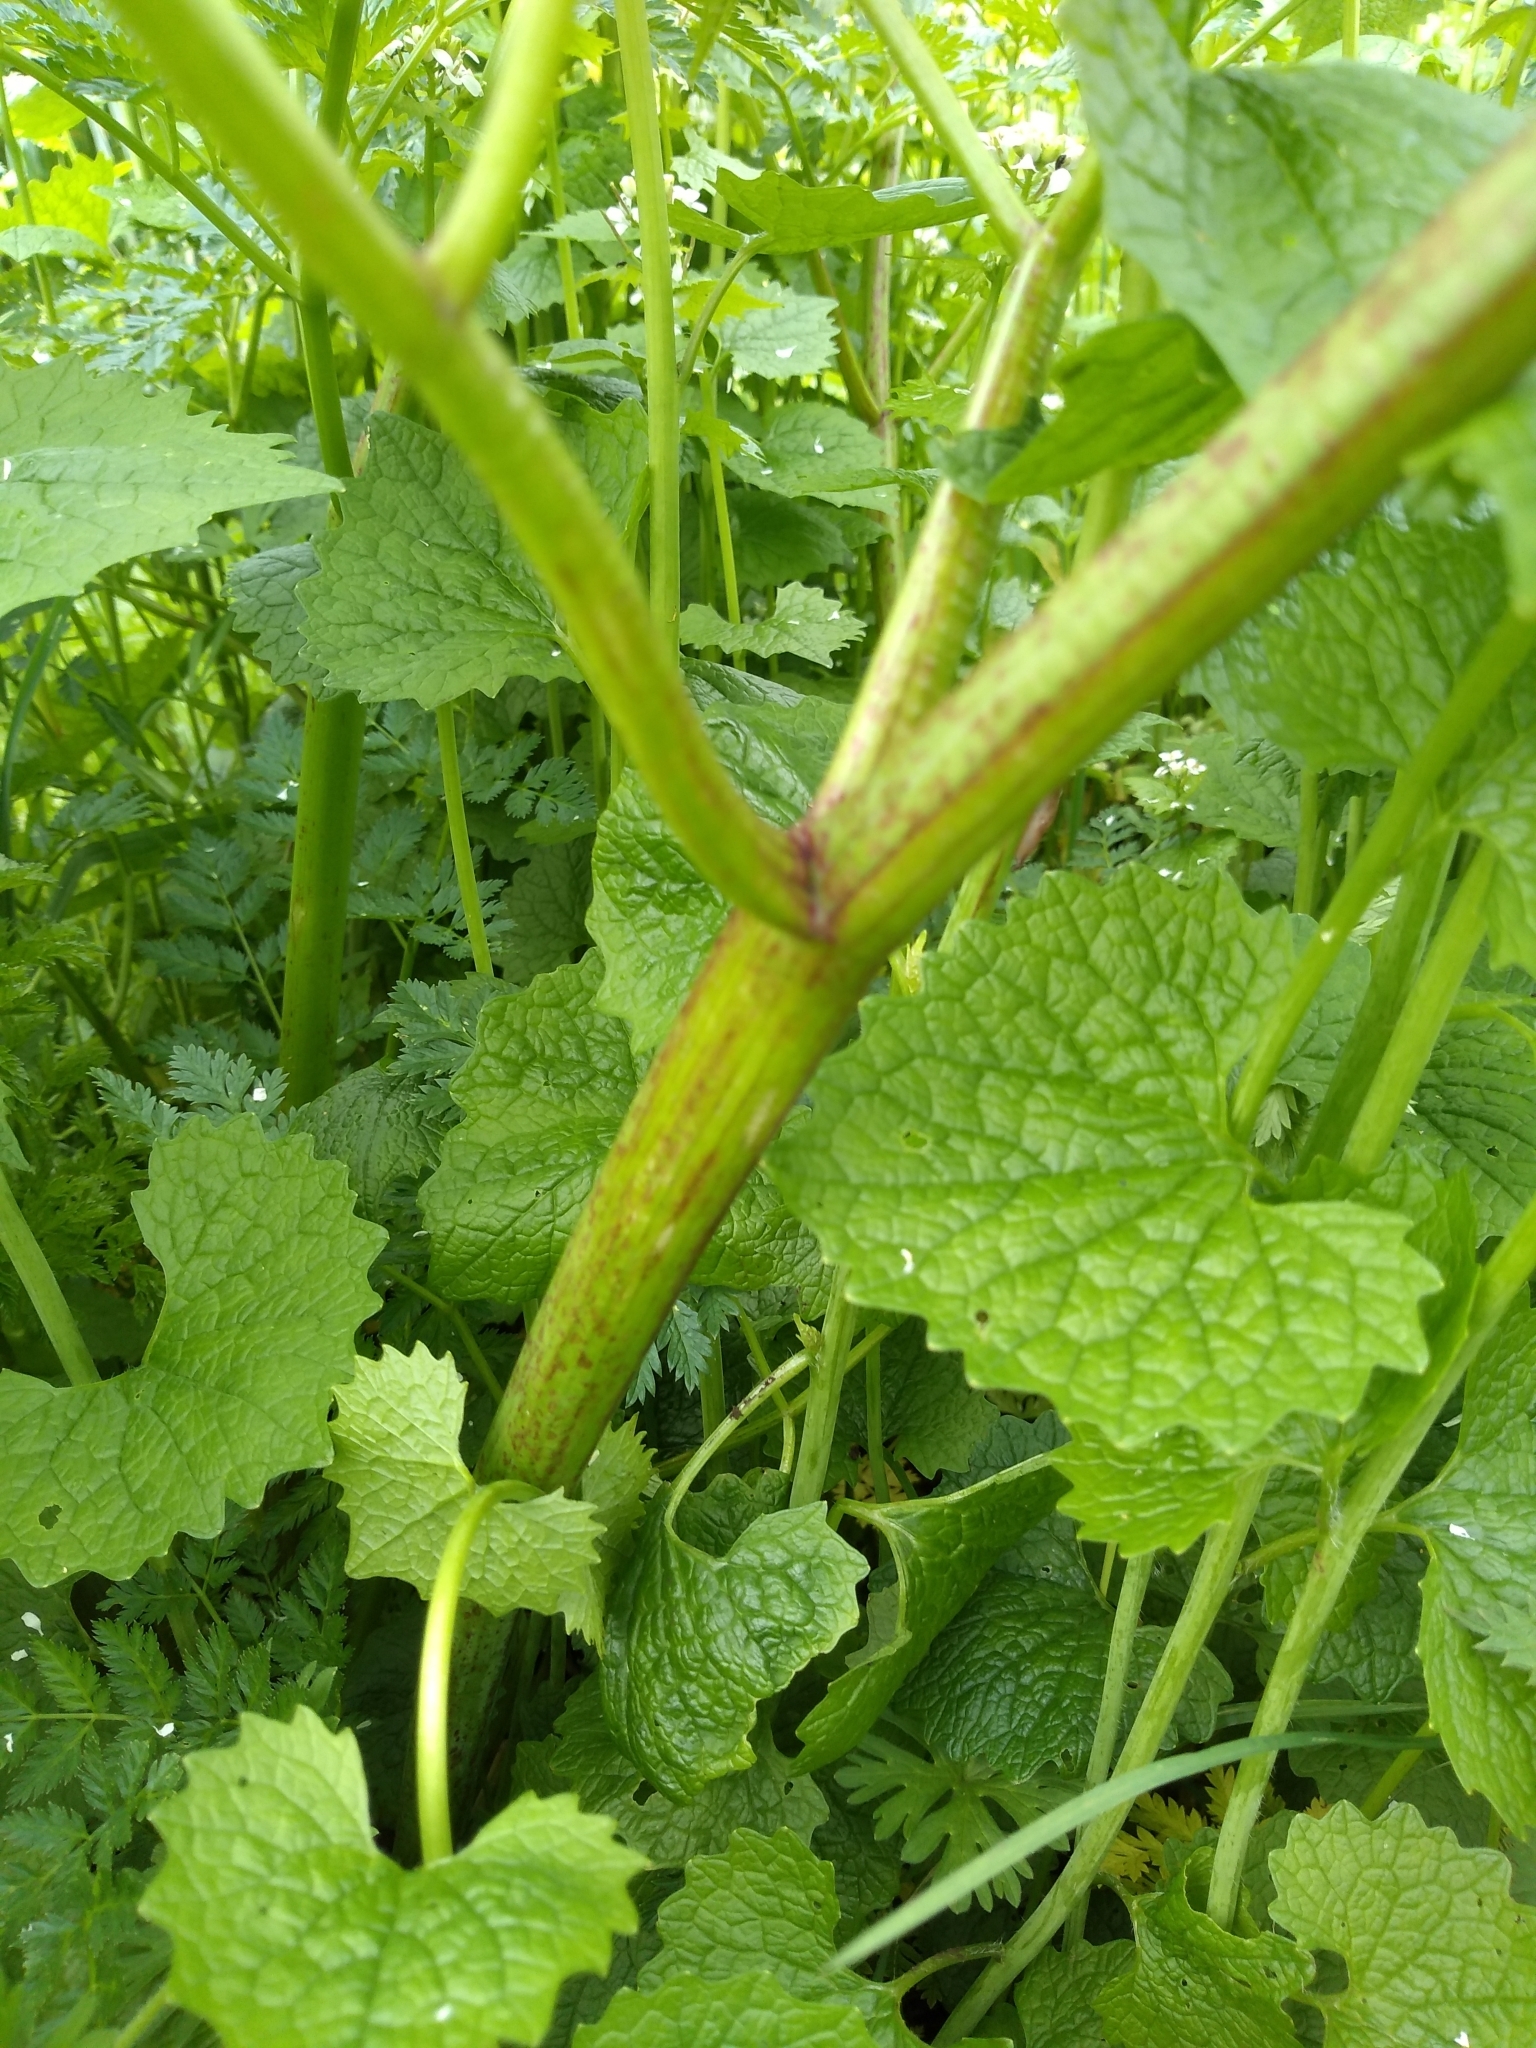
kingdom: Plantae
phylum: Tracheophyta
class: Magnoliopsida
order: Apiales
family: Apiaceae
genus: Conium
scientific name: Conium maculatum
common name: Hemlock
